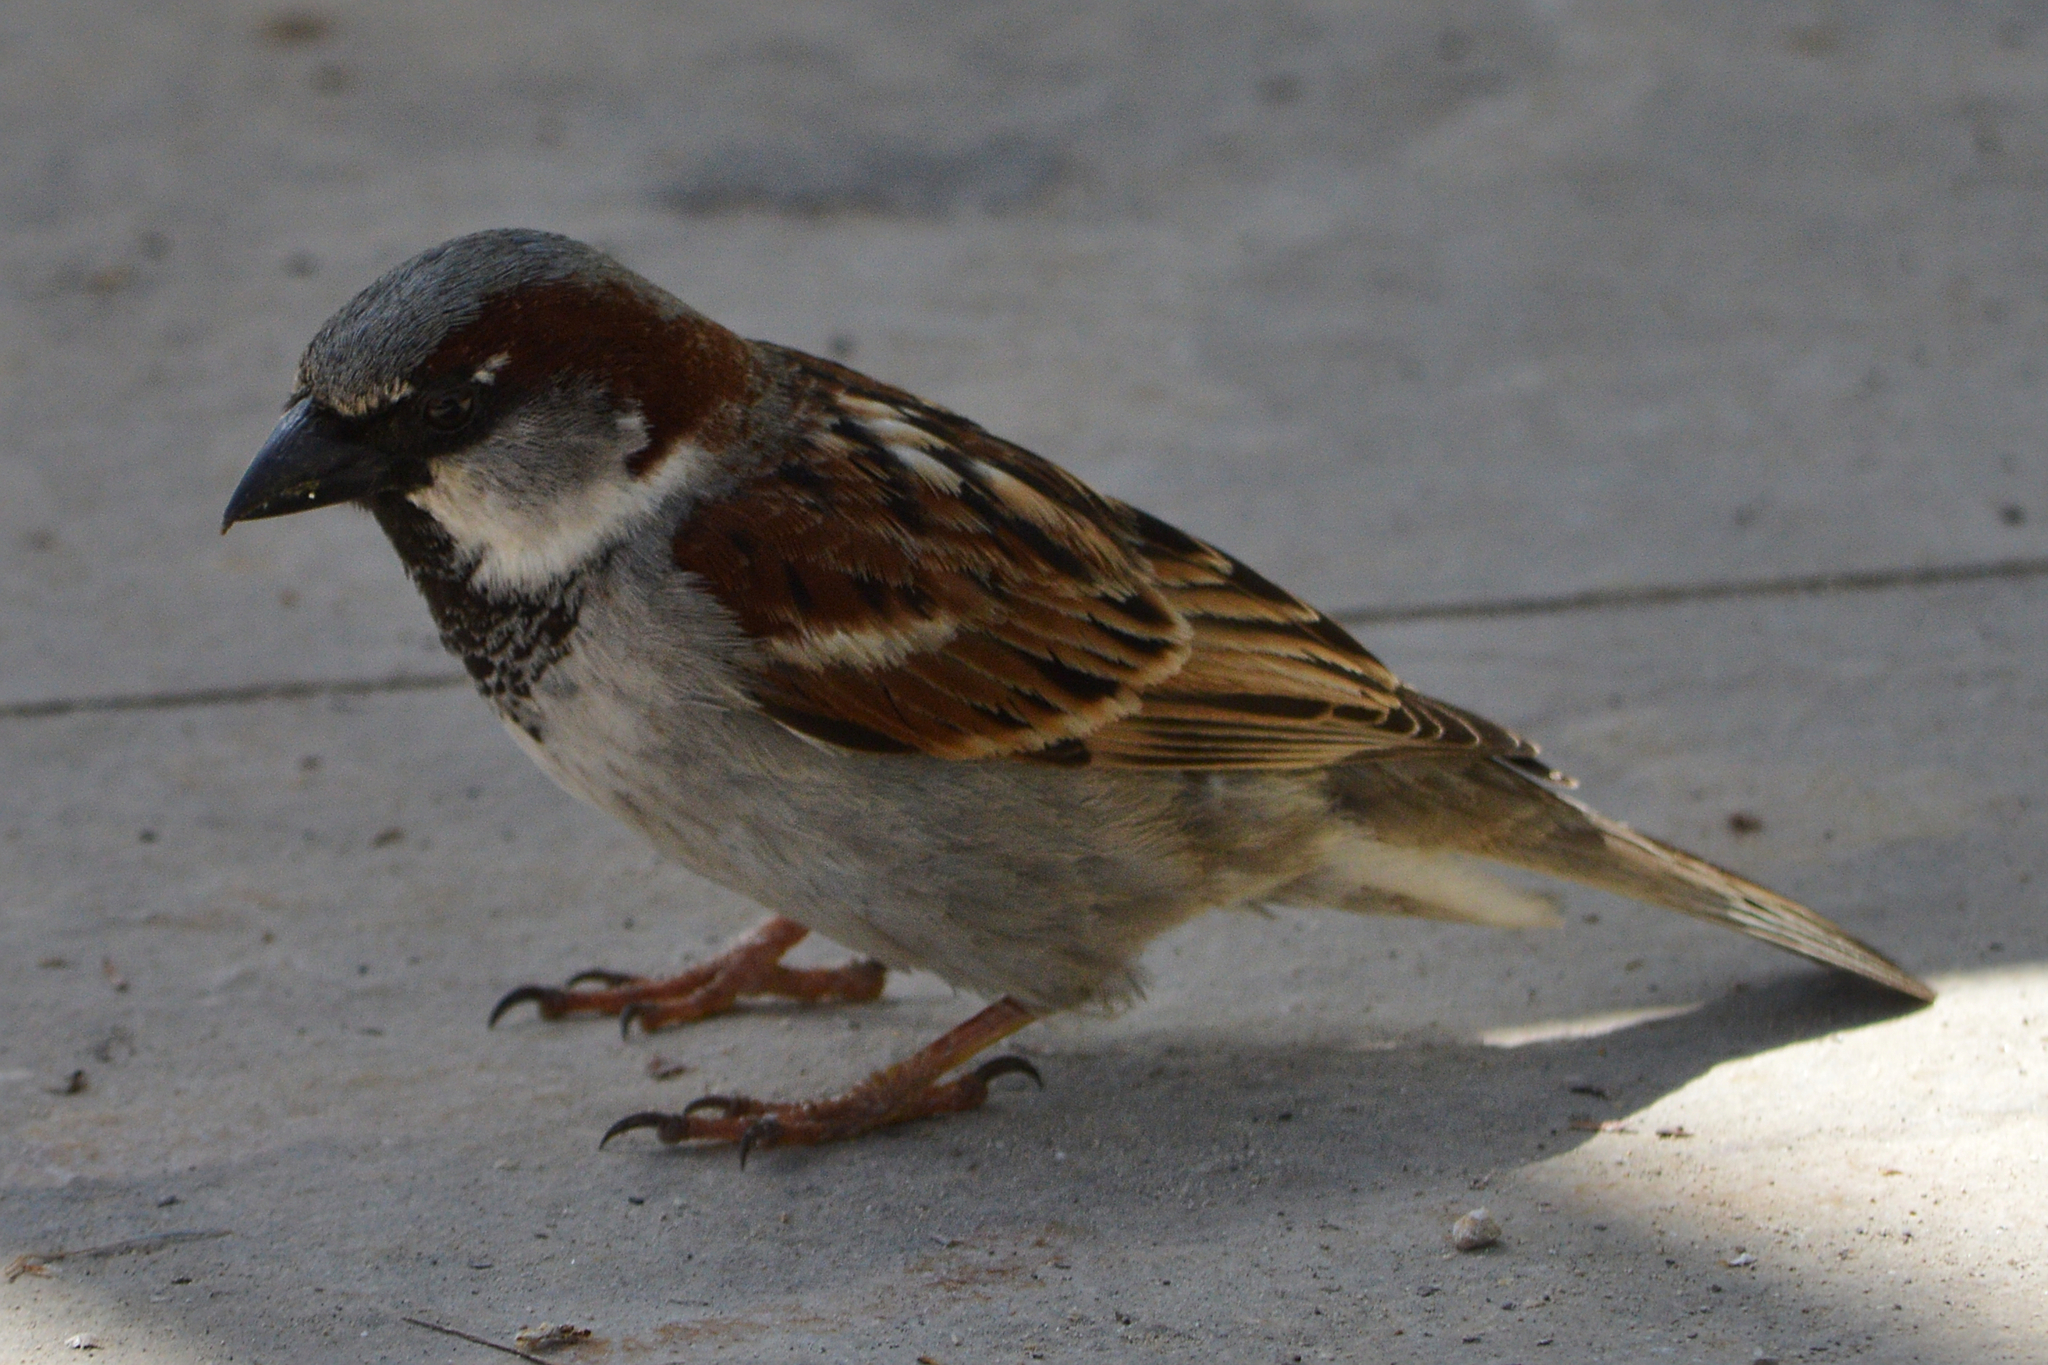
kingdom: Animalia
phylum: Chordata
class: Aves
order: Passeriformes
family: Passeridae
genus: Passer
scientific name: Passer domesticus
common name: House sparrow
